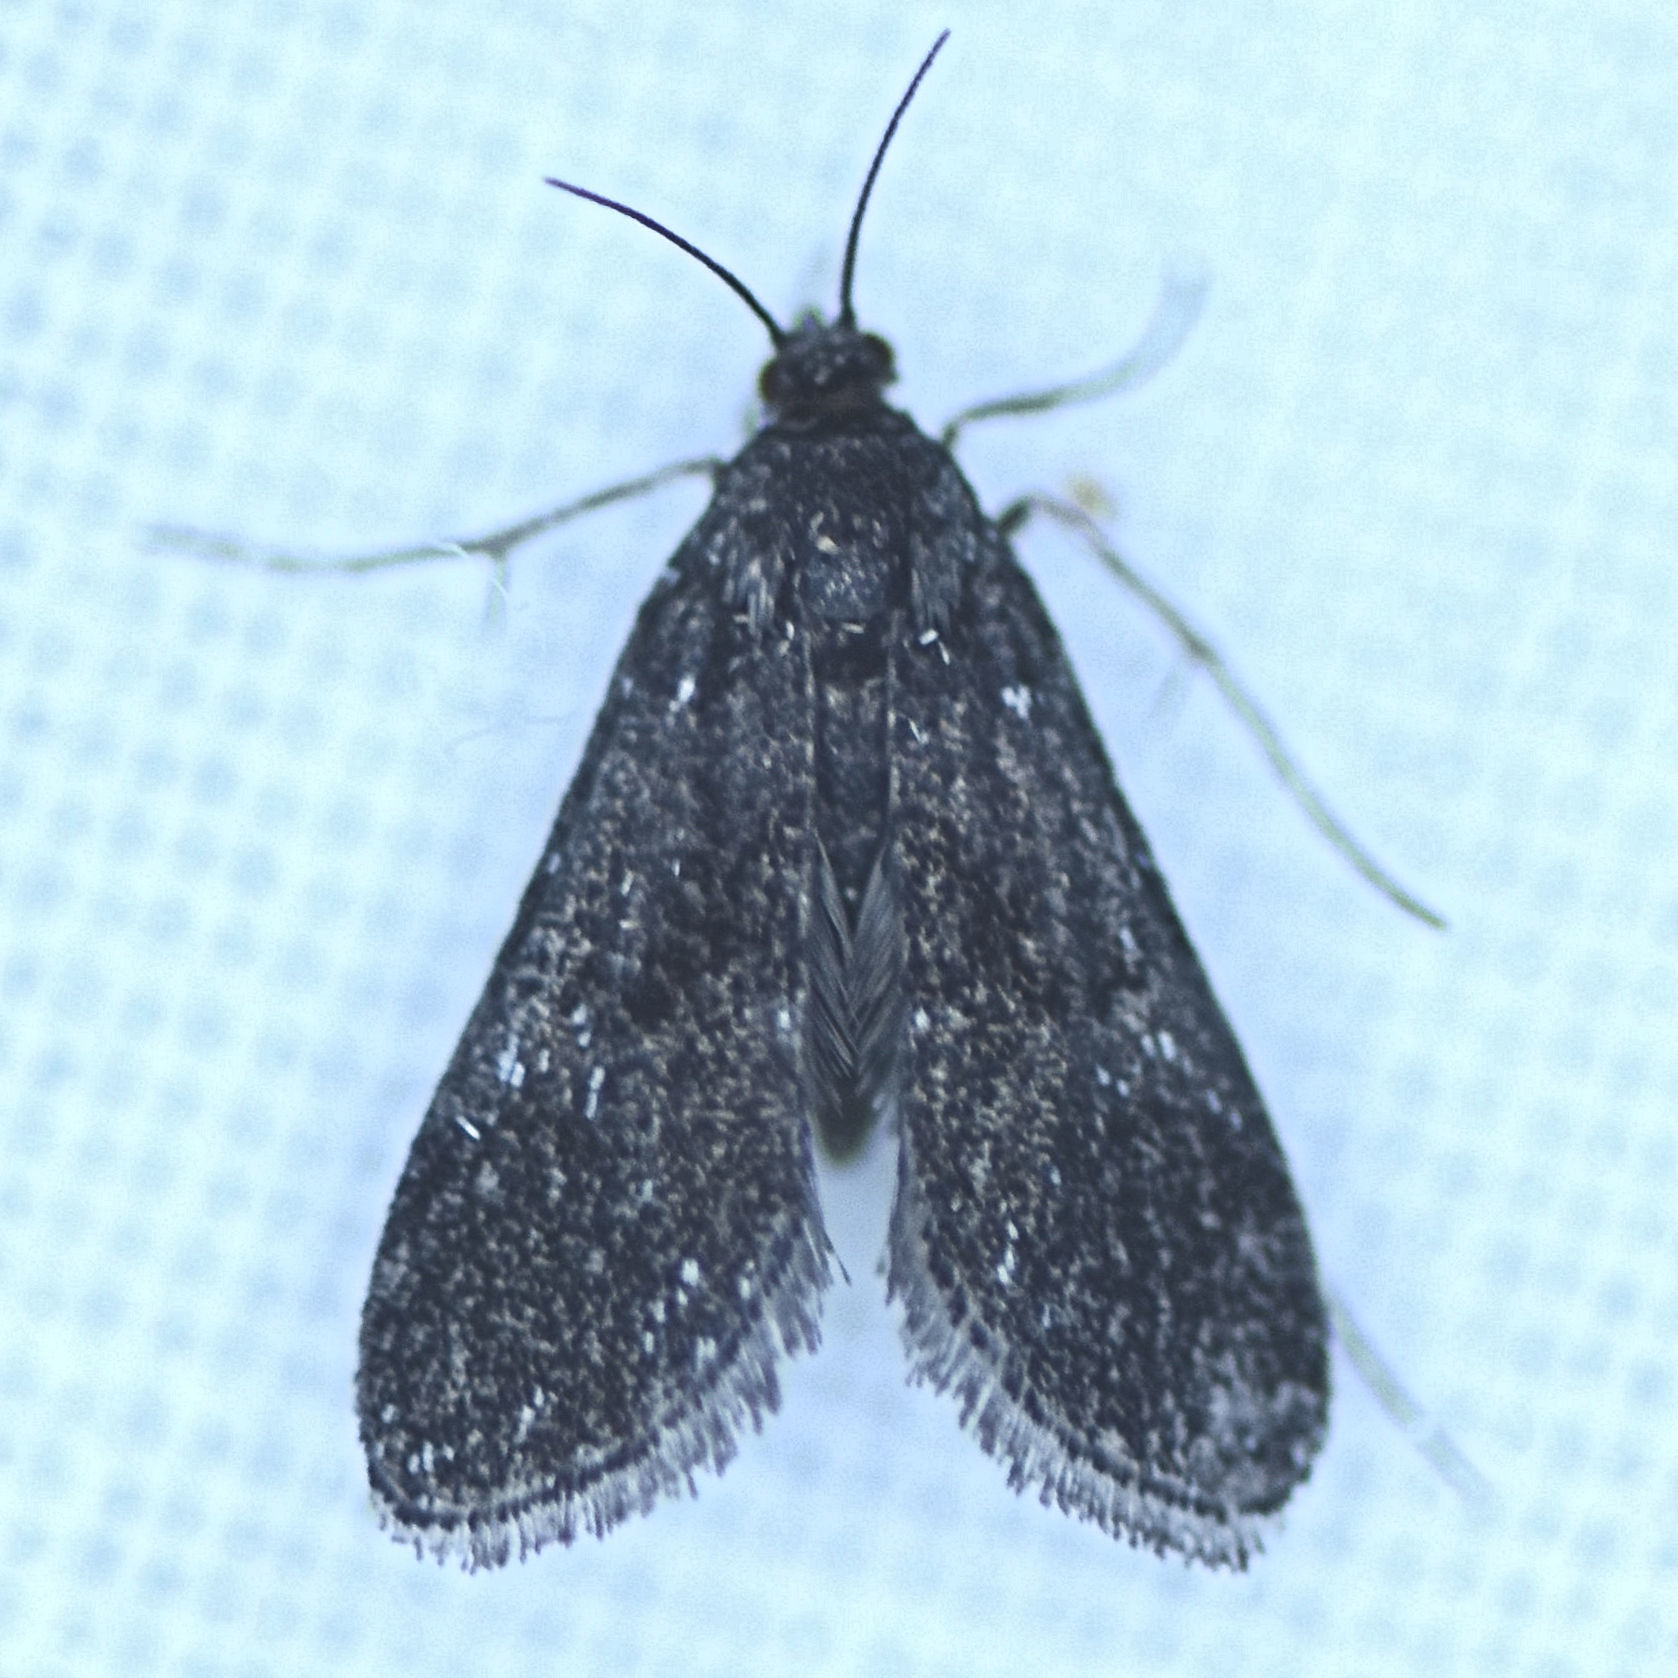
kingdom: Animalia
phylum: Arthropoda
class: Insecta
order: Lepidoptera
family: Crambidae
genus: Elophila
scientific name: Elophila tinealis
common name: Black duckweed moth
